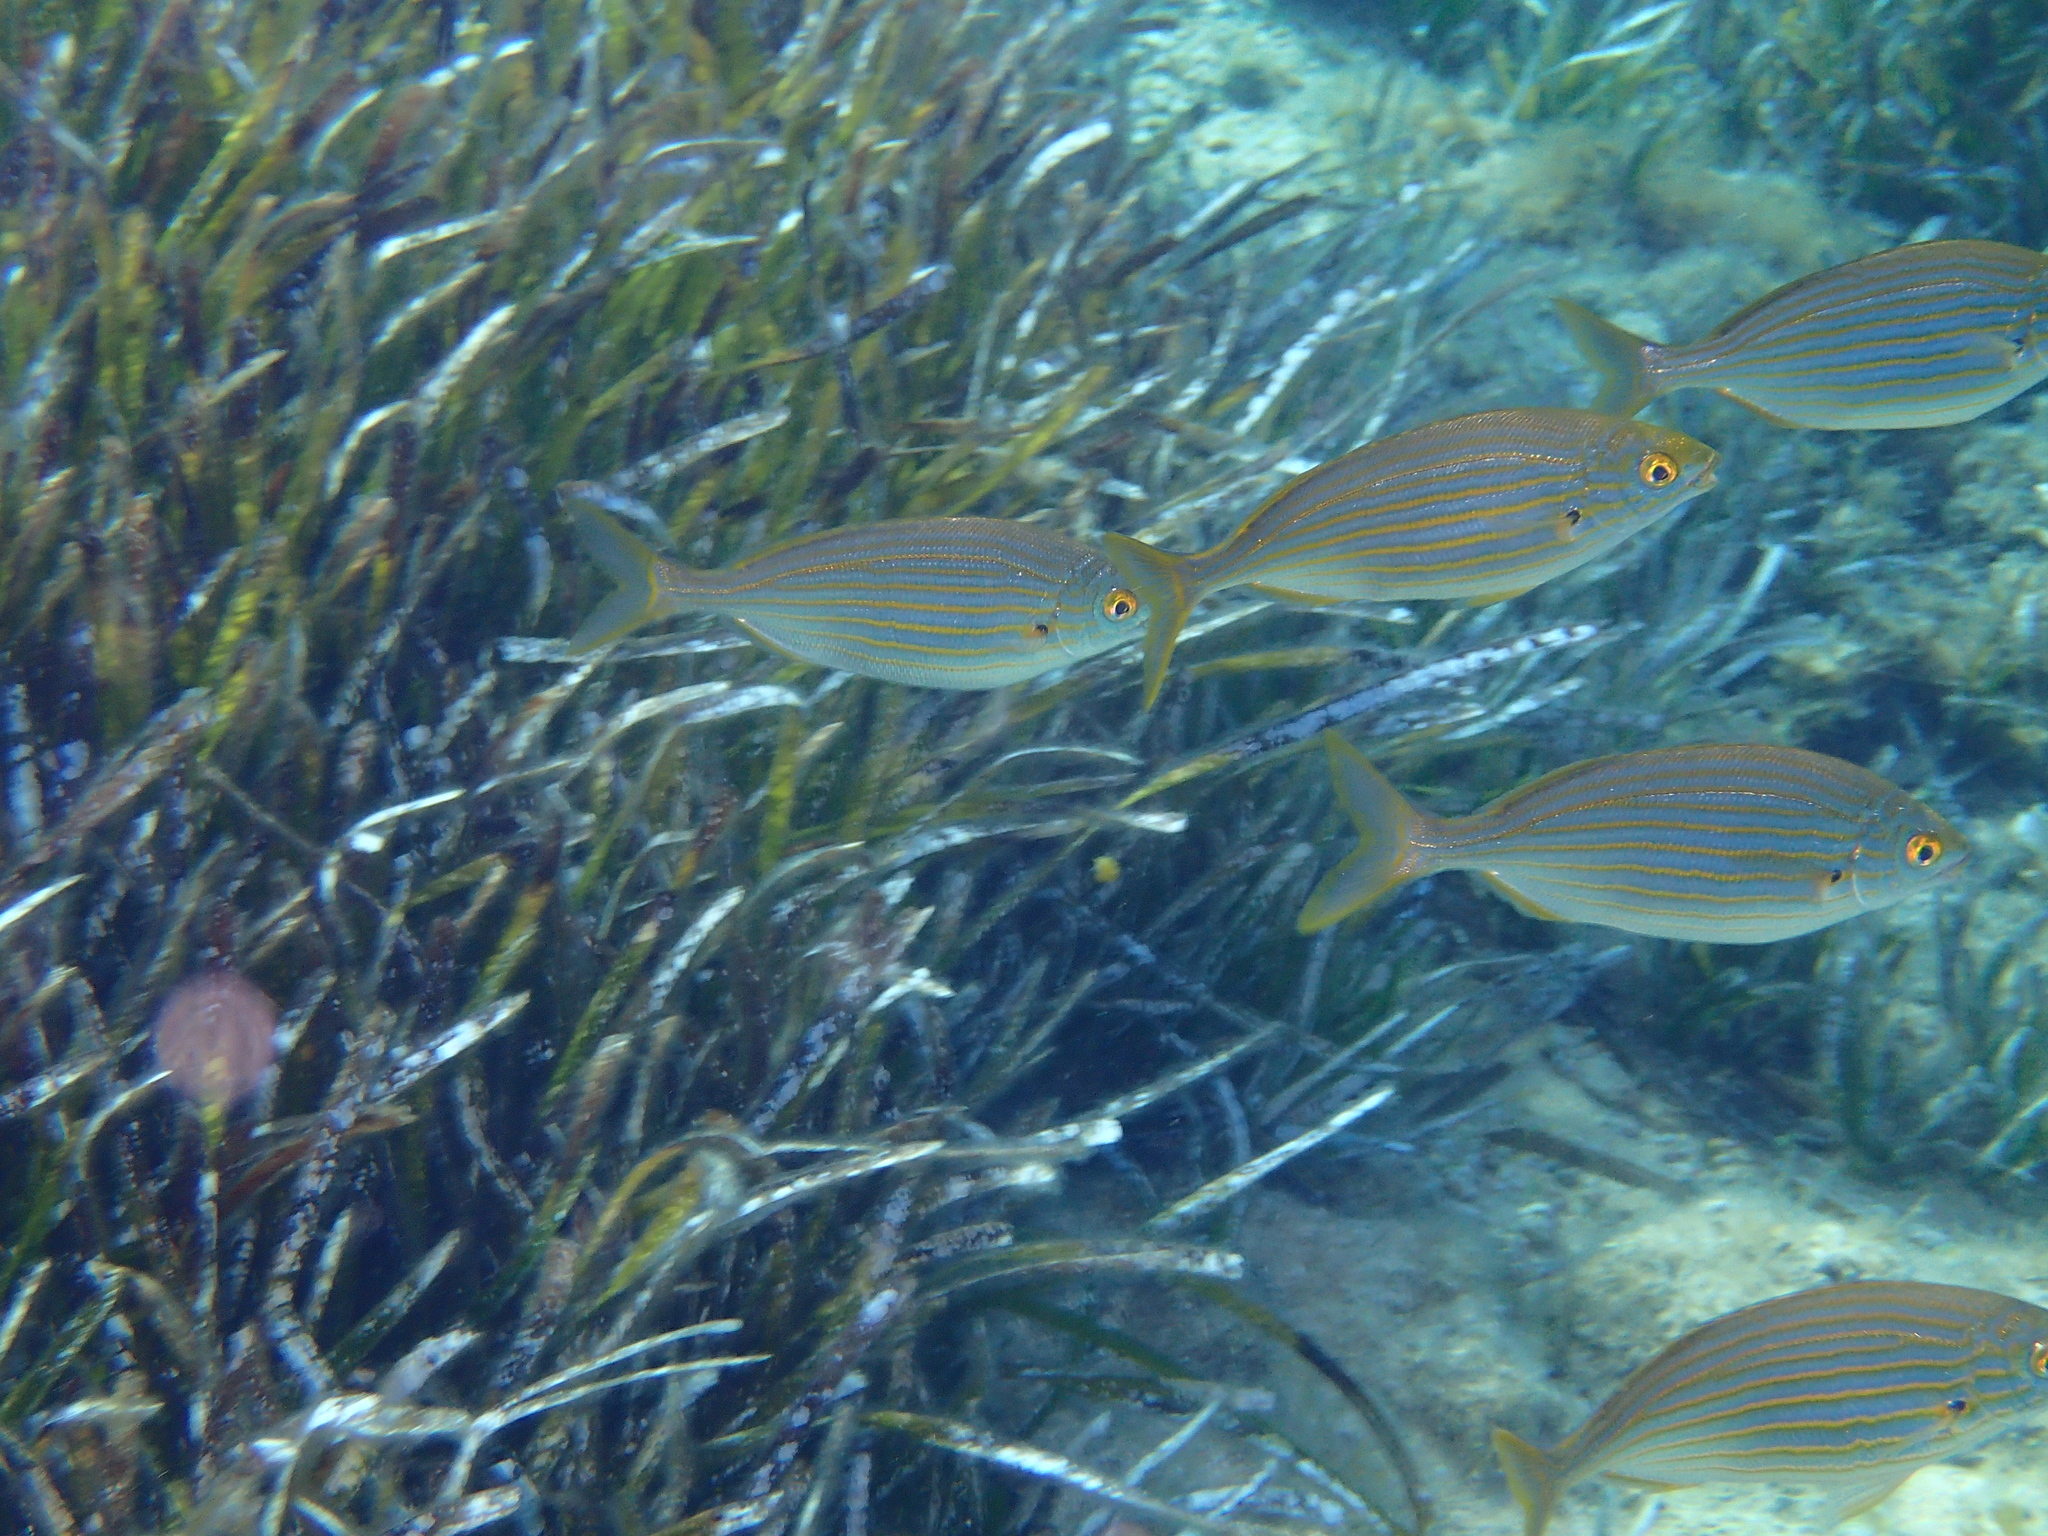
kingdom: Animalia
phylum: Chordata
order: Perciformes
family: Sparidae
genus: Sarpa
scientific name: Sarpa salpa
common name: Salema
